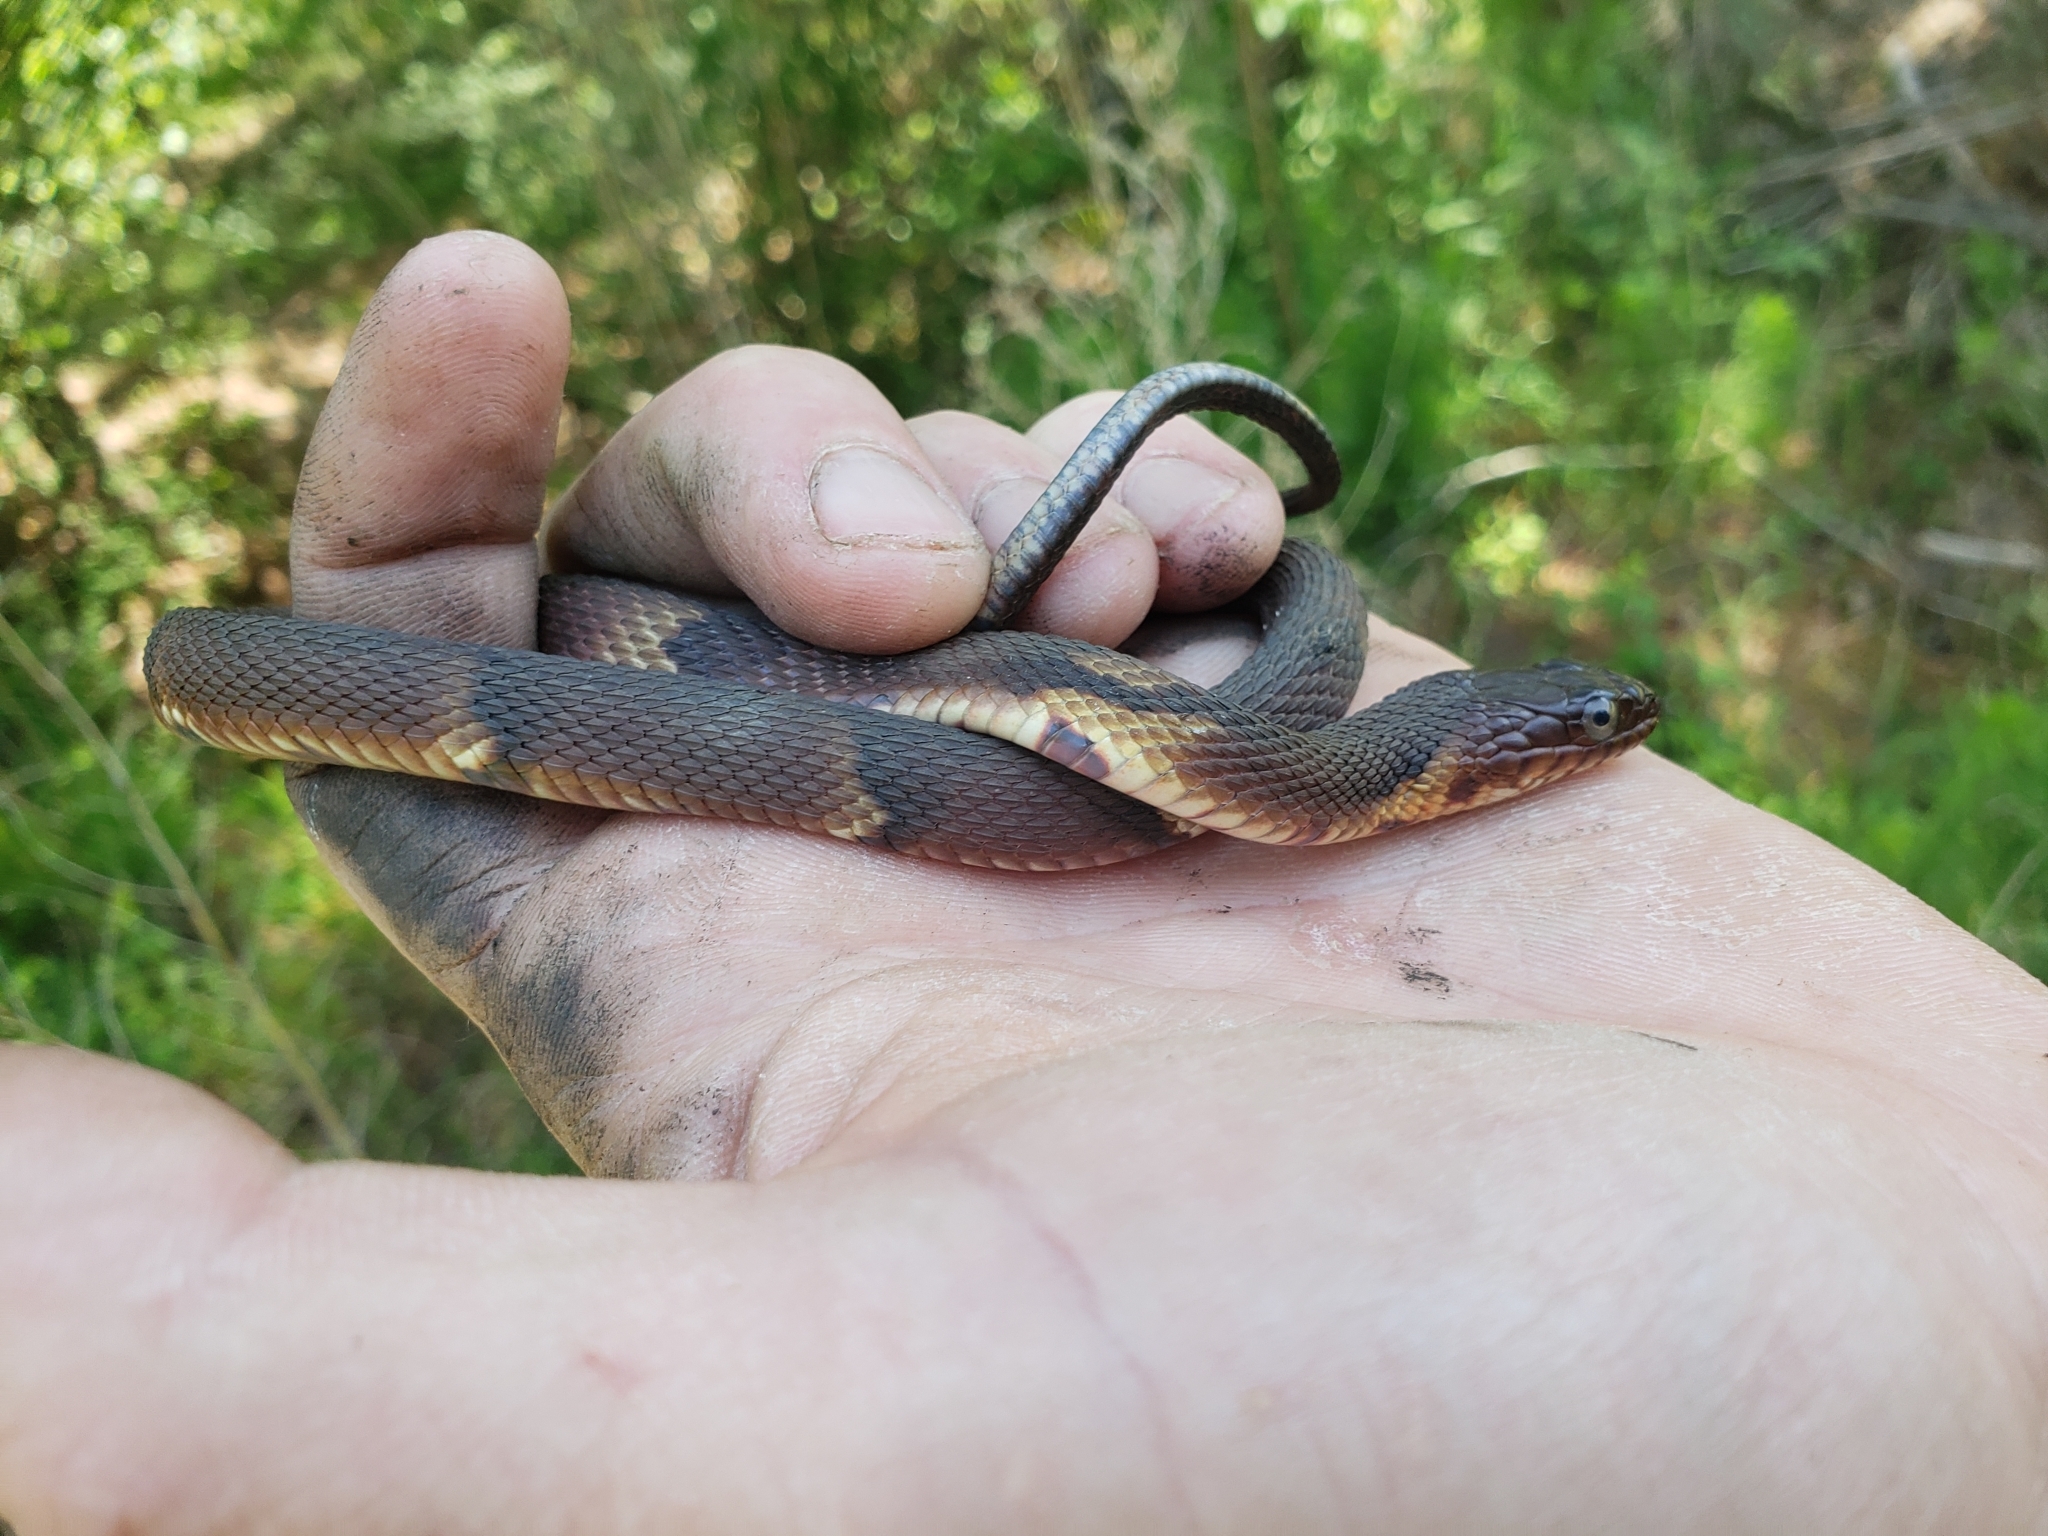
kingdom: Animalia
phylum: Chordata
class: Squamata
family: Colubridae
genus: Nerodia
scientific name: Nerodia fasciata
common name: Southern water snake
